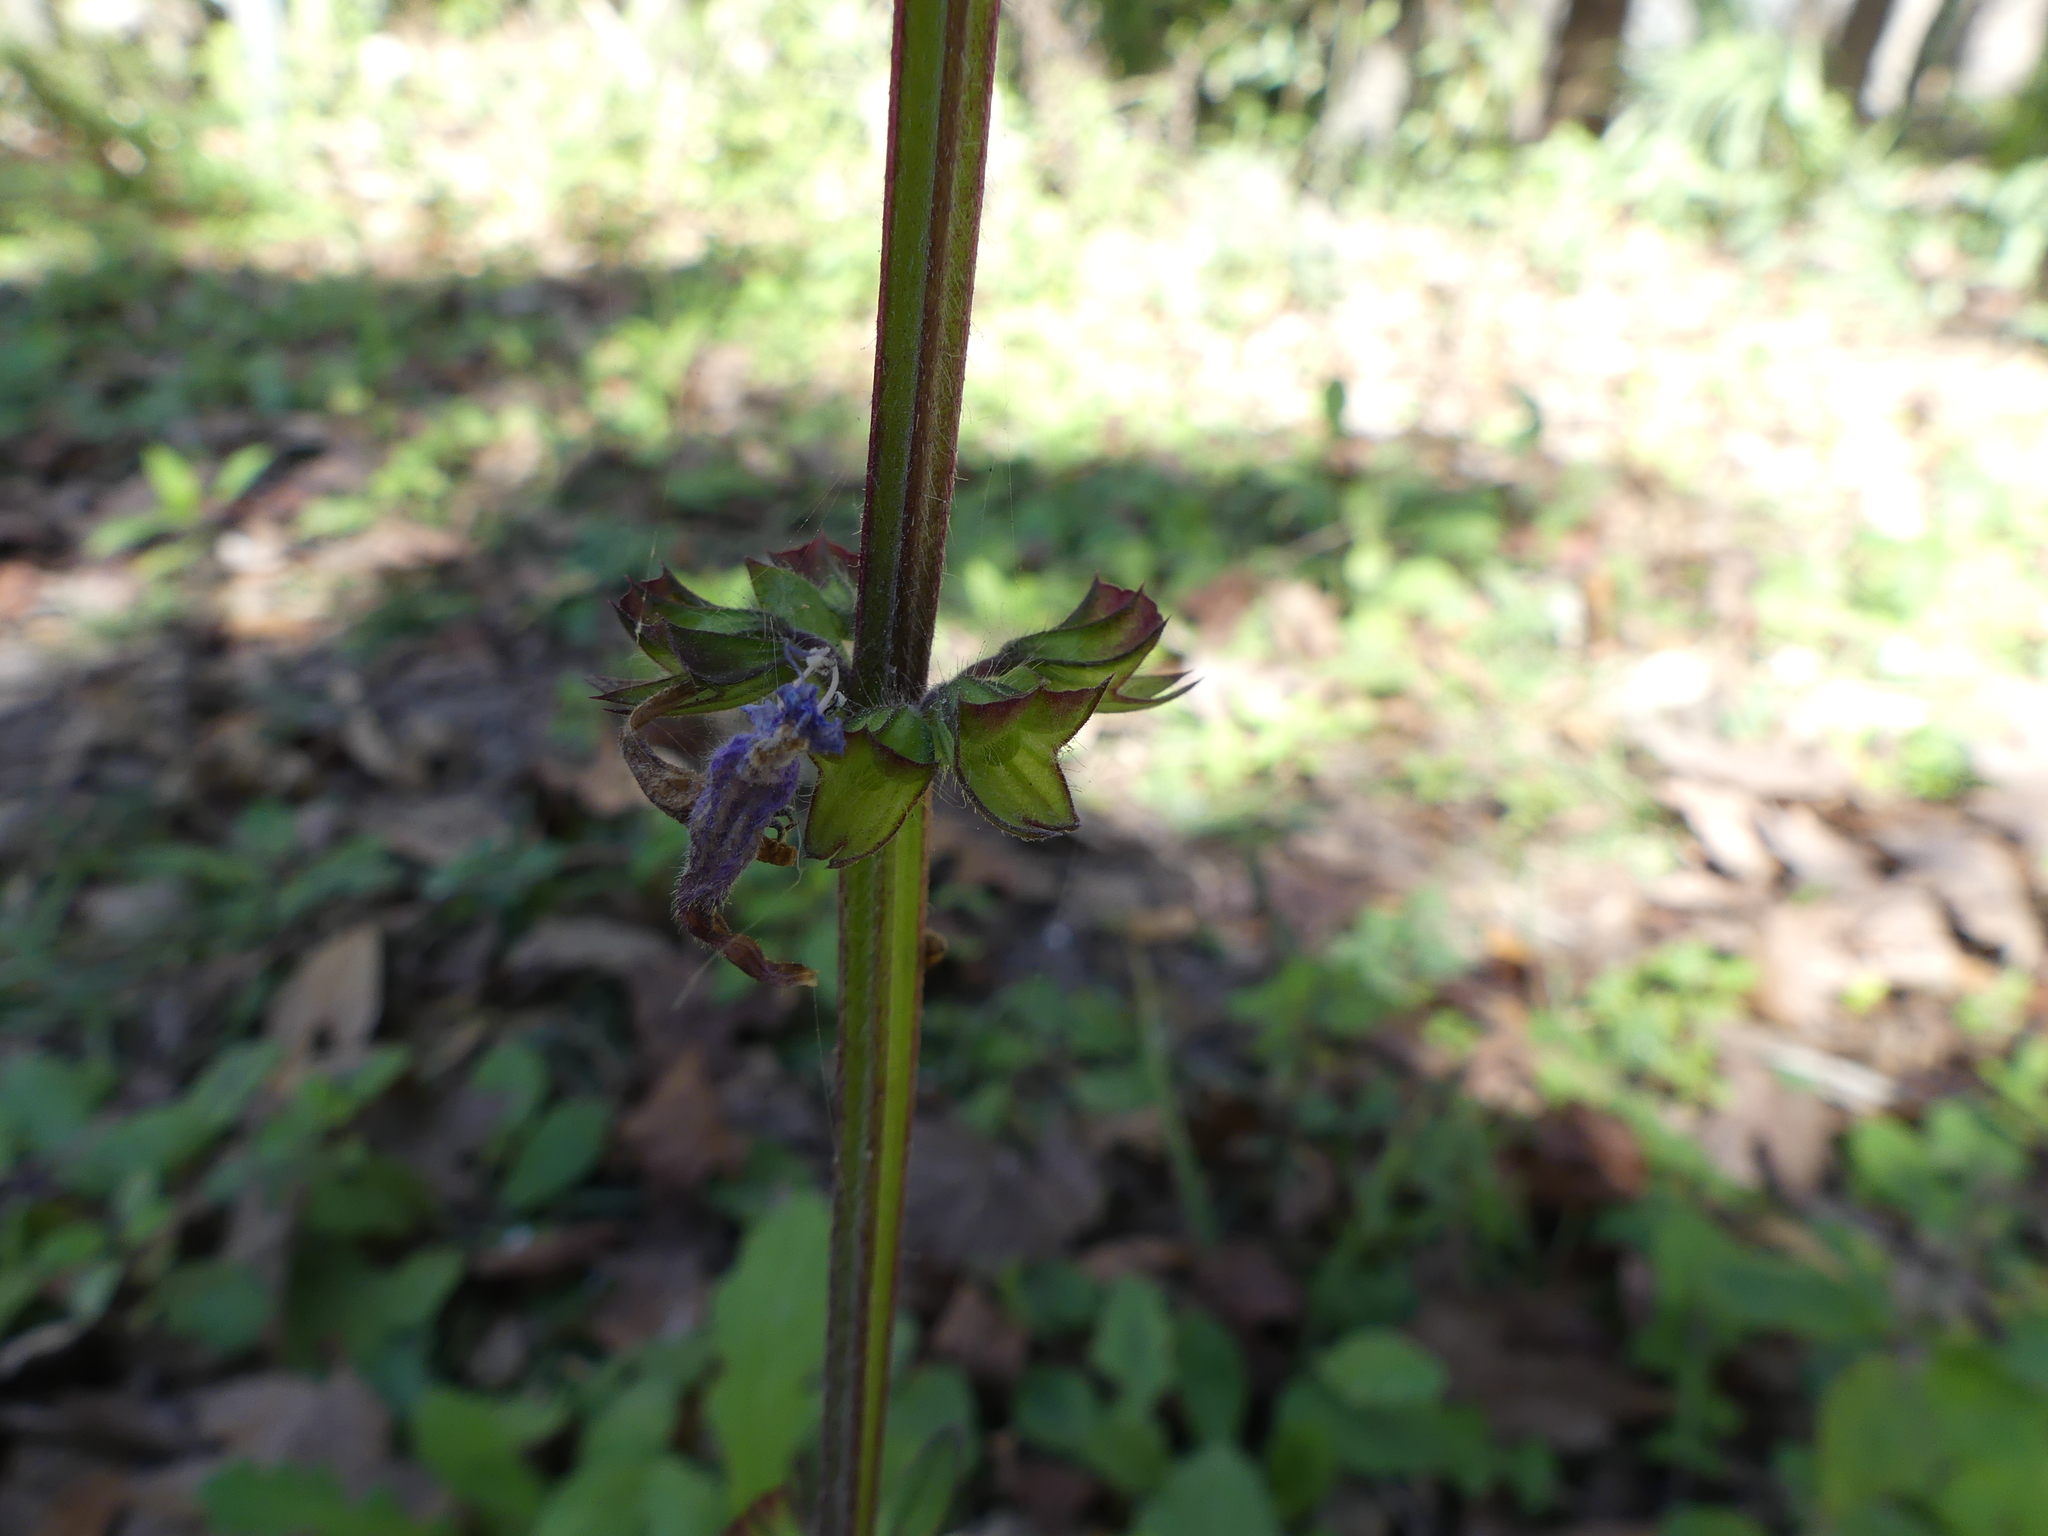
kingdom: Plantae
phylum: Tracheophyta
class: Magnoliopsida
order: Lamiales
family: Lamiaceae
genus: Salvia
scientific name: Salvia lyrata
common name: Cancerweed
